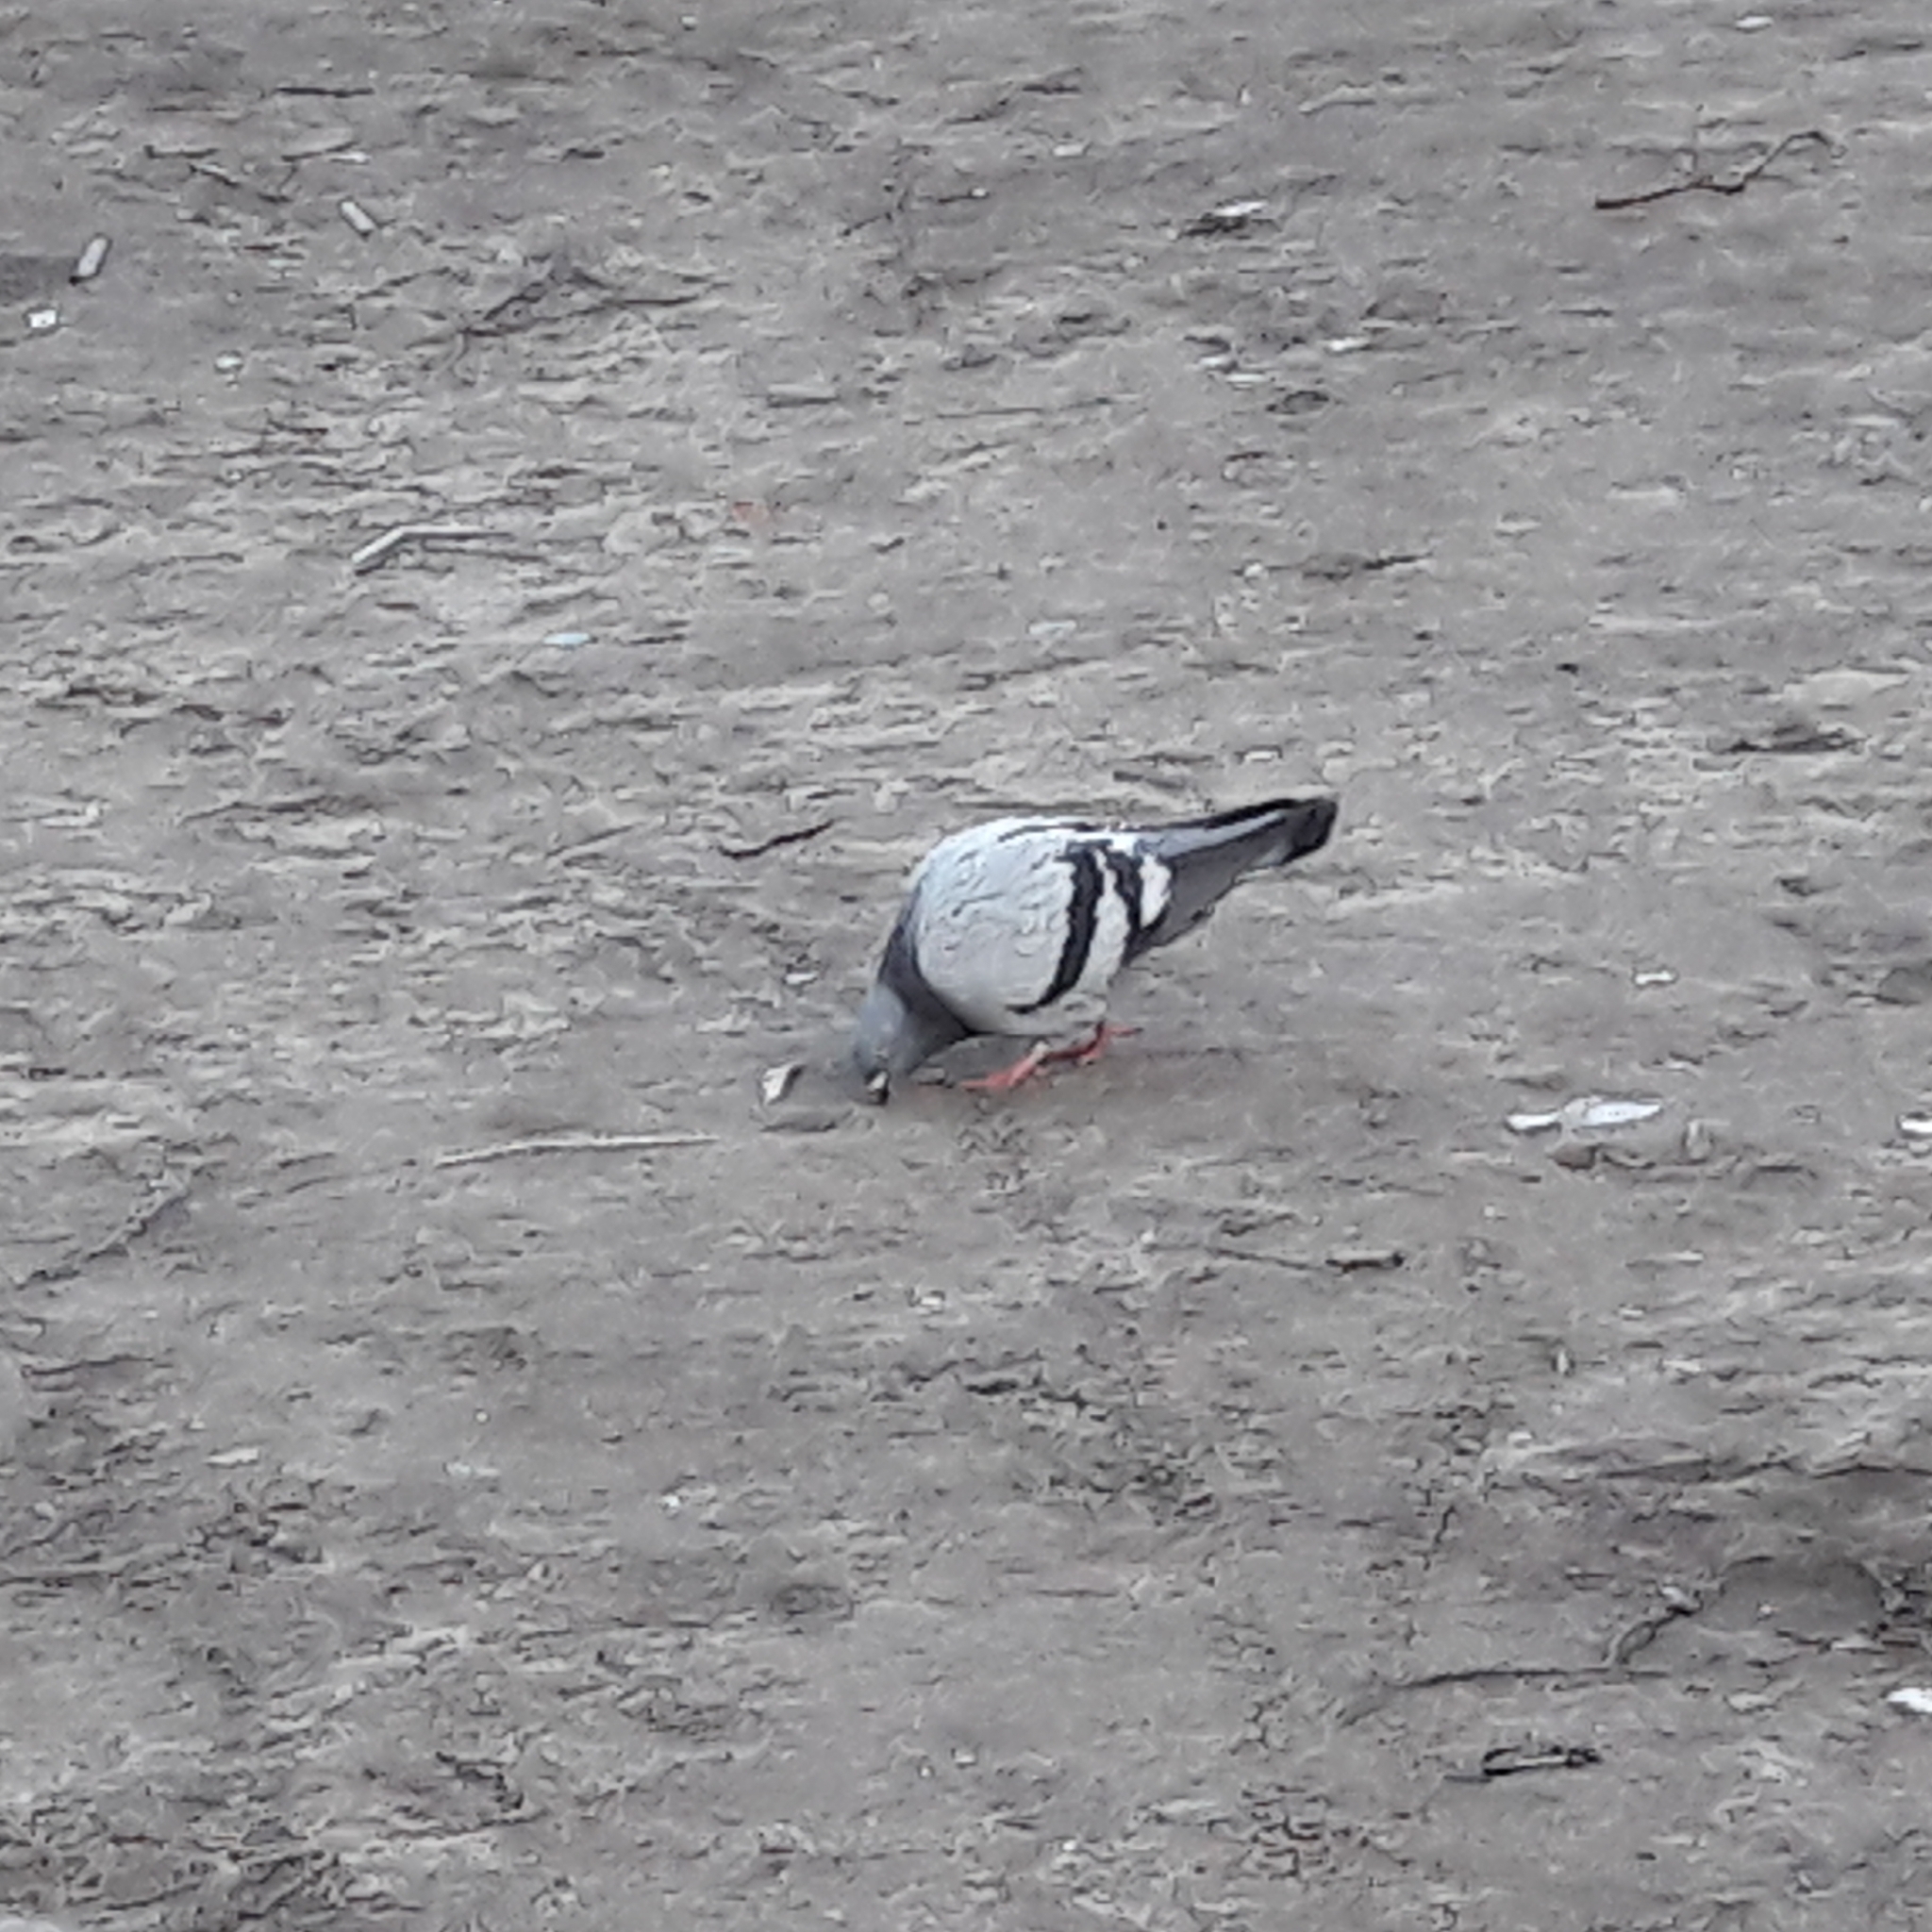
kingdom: Animalia
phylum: Chordata
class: Aves
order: Columbiformes
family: Columbidae
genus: Columba
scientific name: Columba livia
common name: Rock pigeon
